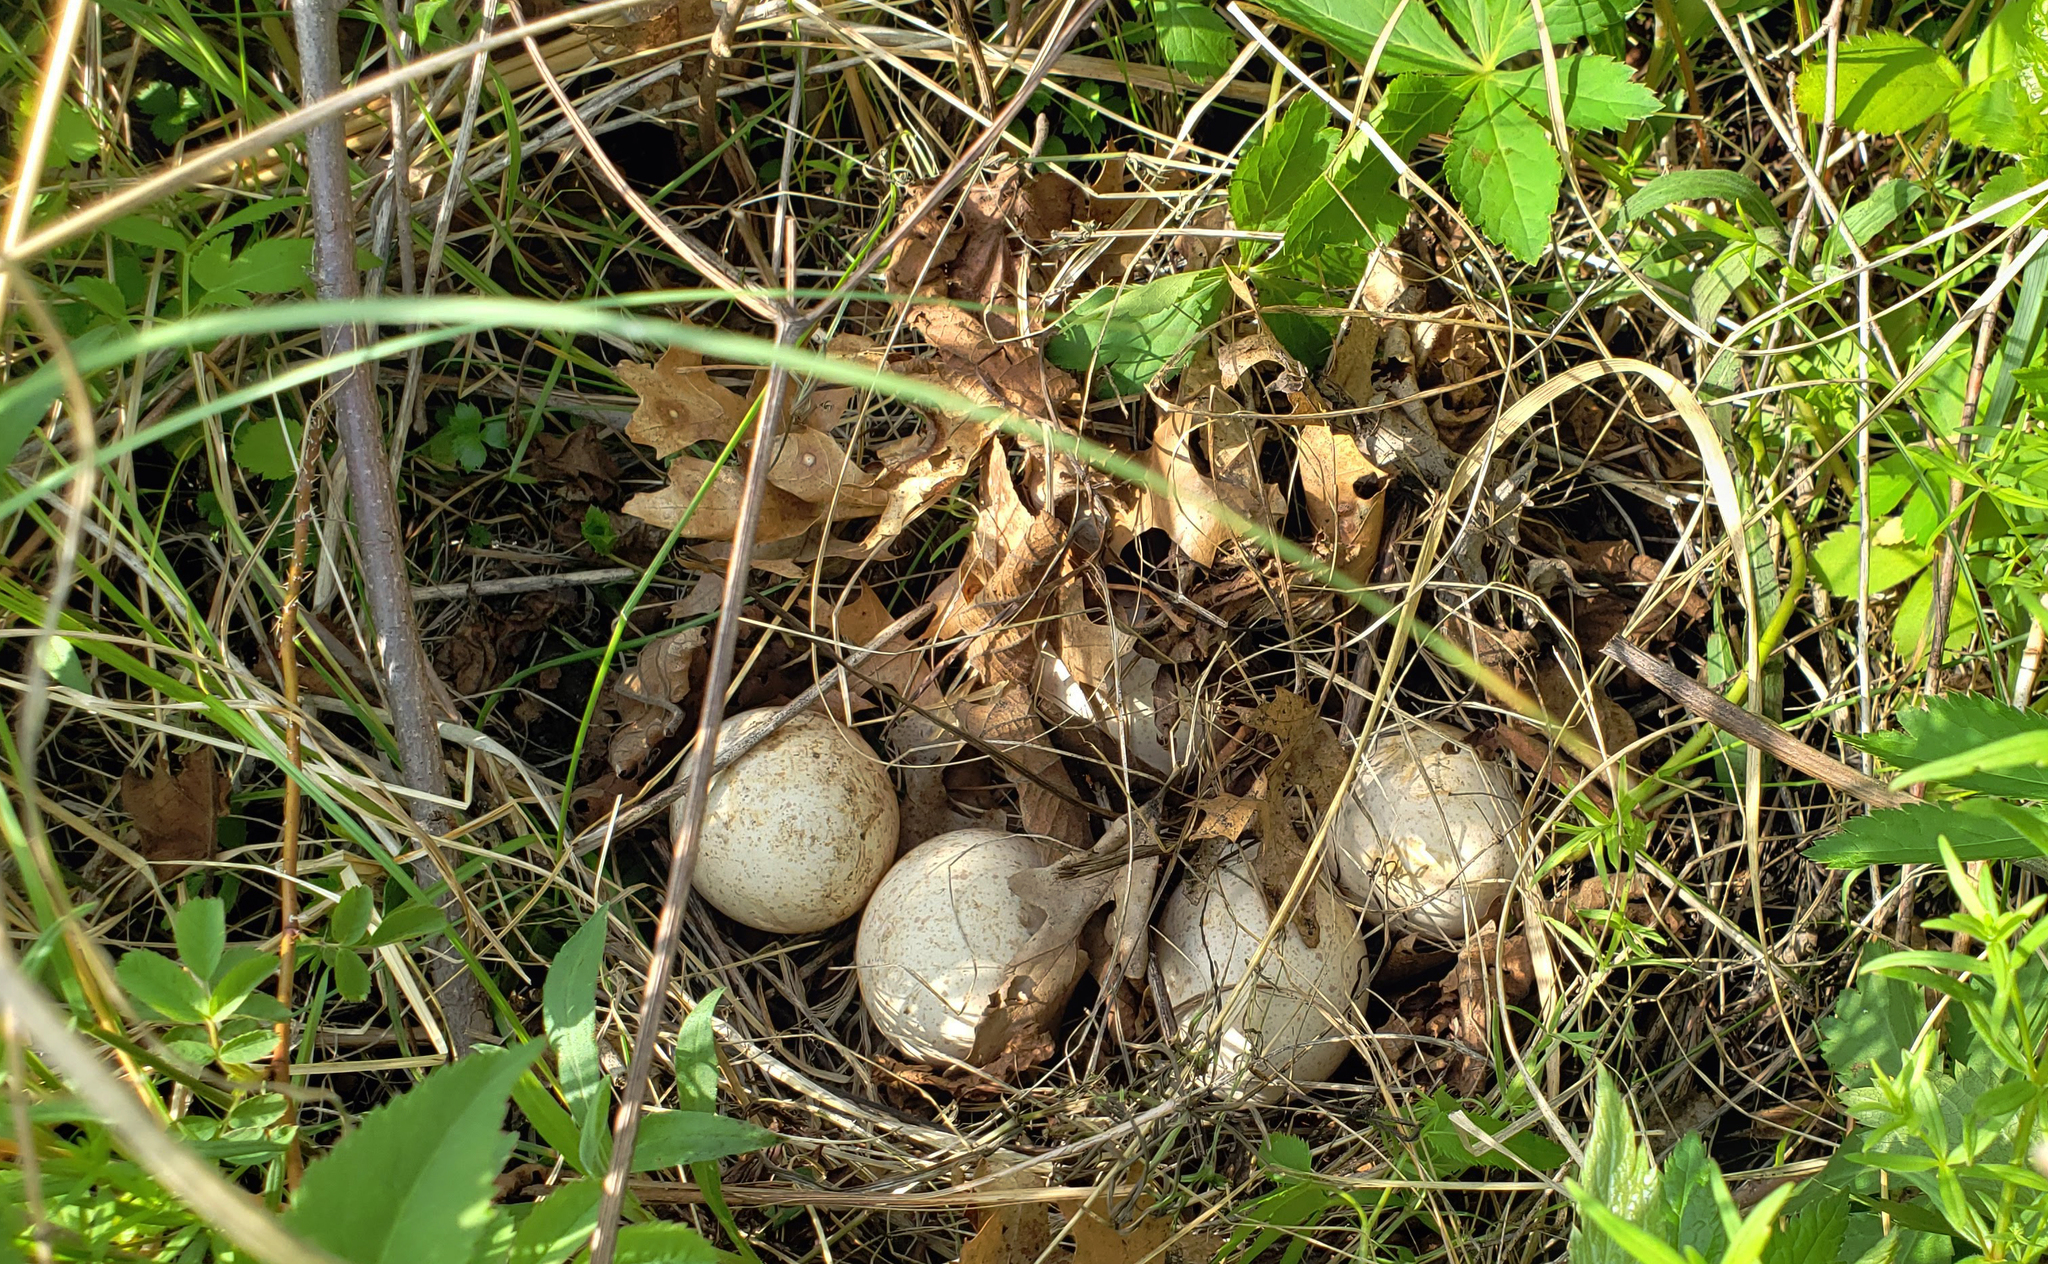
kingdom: Animalia
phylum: Chordata
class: Aves
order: Galliformes
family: Phasianidae
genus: Meleagris
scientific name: Meleagris gallopavo
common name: Wild turkey
